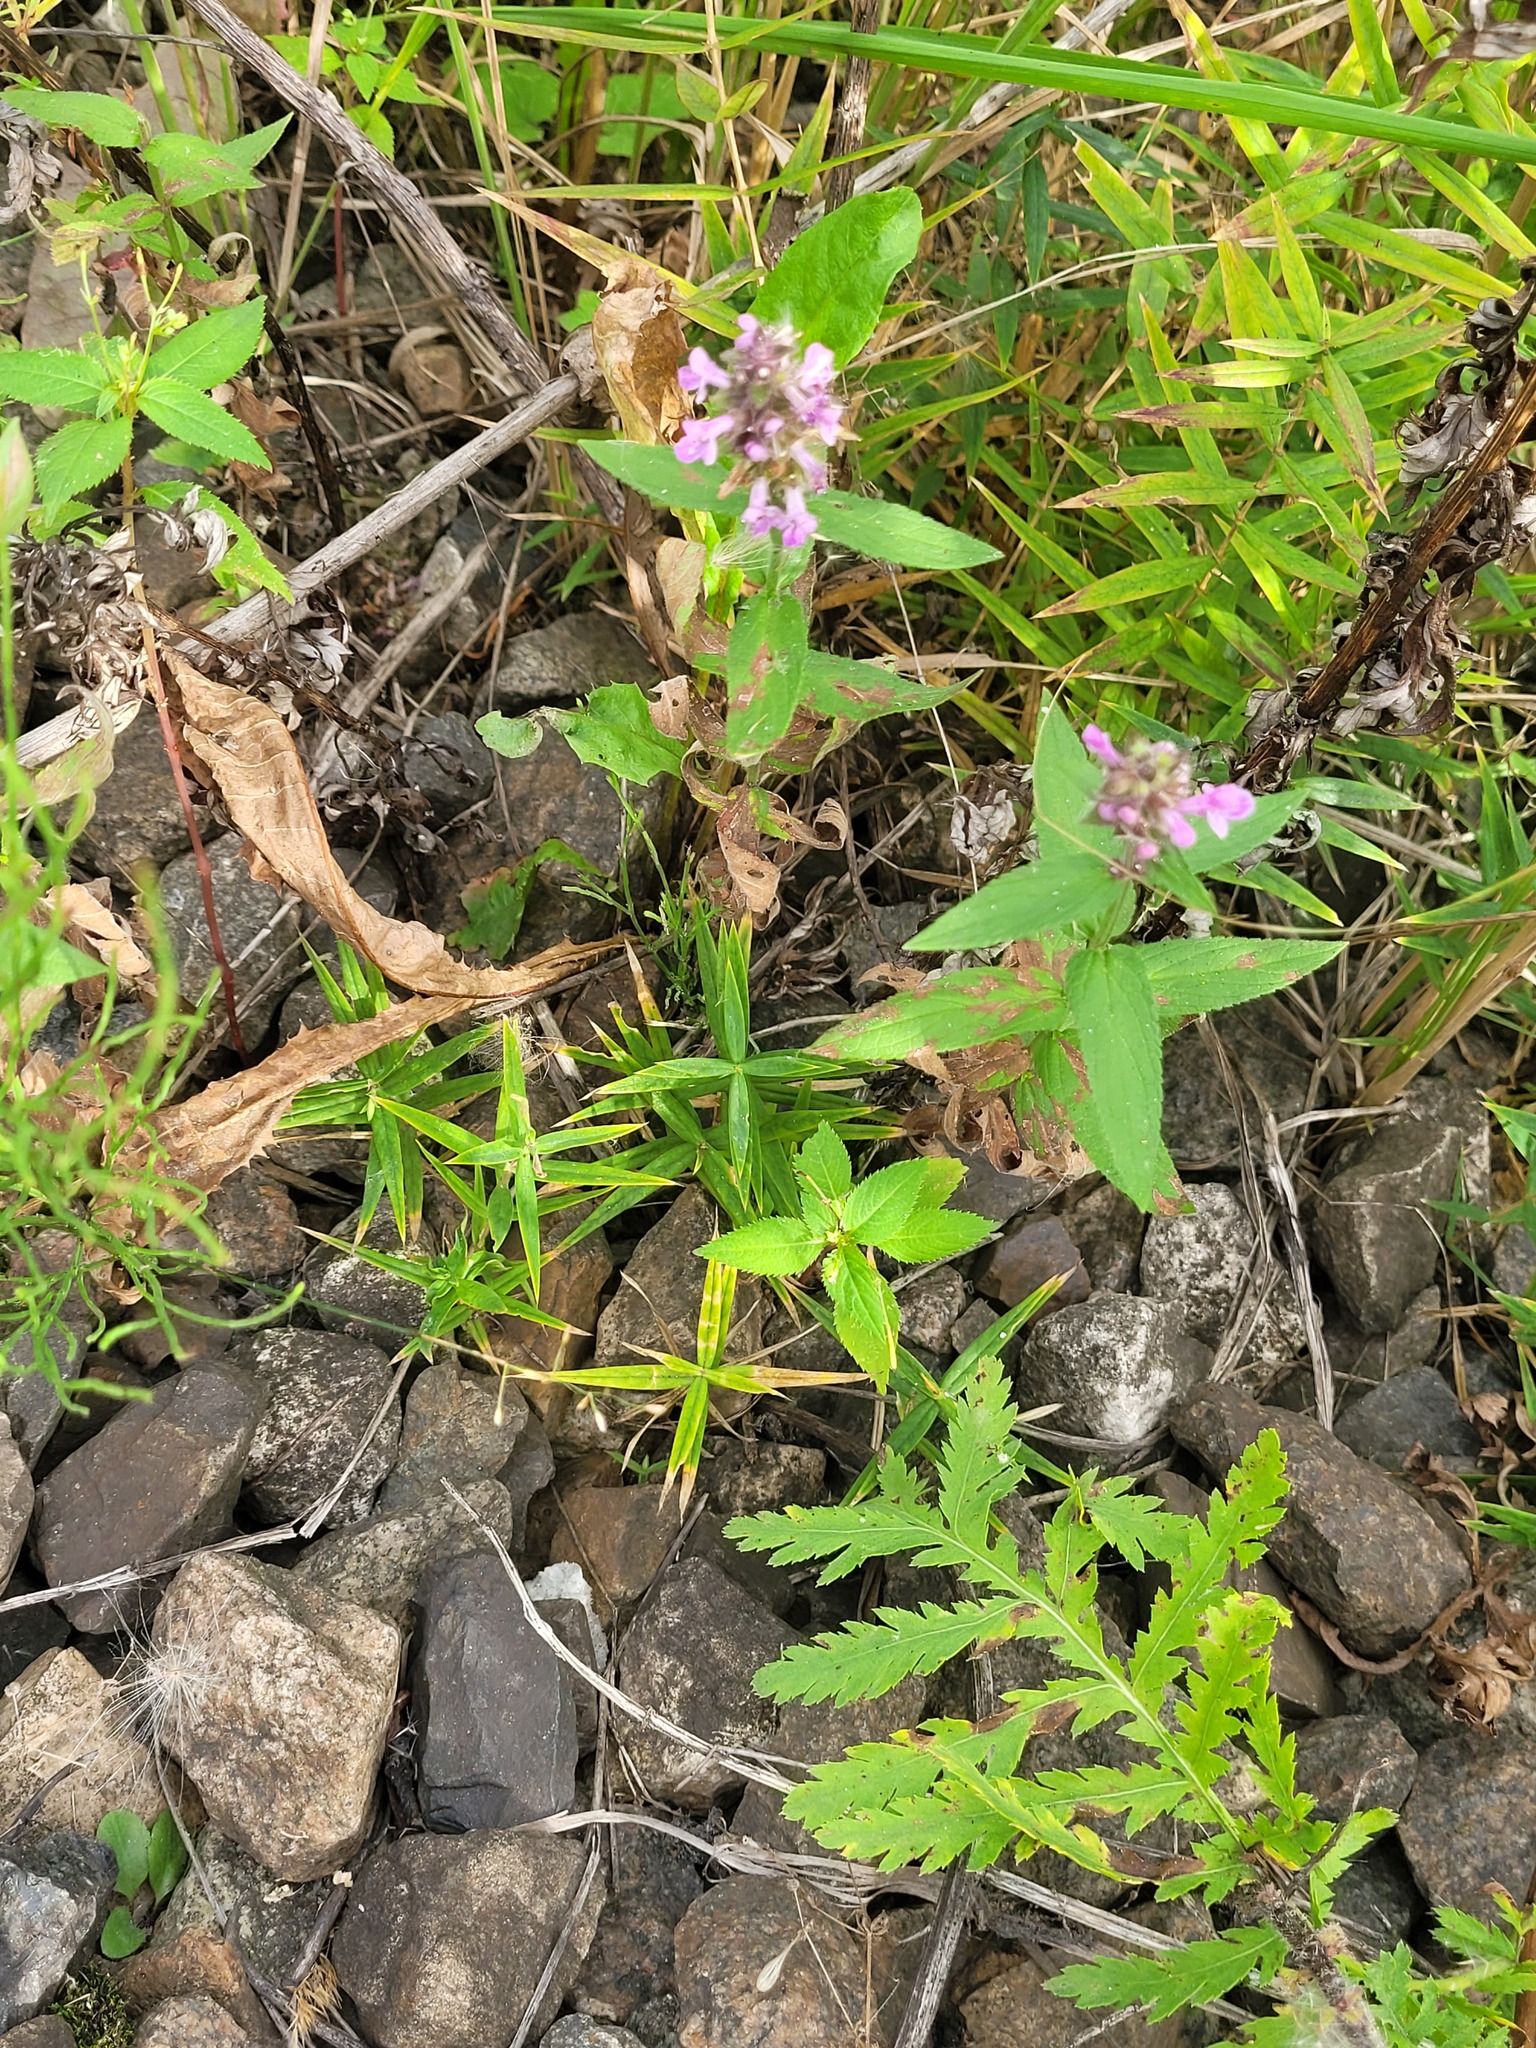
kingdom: Plantae
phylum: Tracheophyta
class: Magnoliopsida
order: Caryophyllales
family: Caryophyllaceae
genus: Rabelera
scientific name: Rabelera holostea
